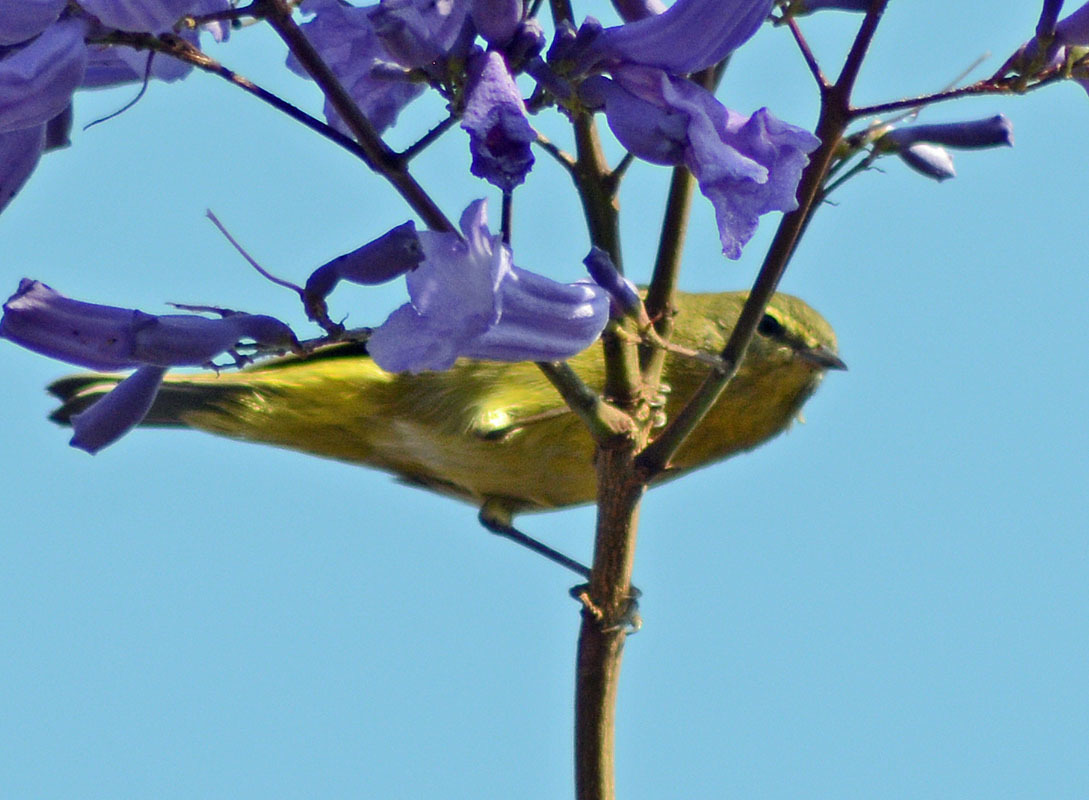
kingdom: Animalia
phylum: Chordata
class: Aves
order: Passeriformes
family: Parulidae
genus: Leiothlypis
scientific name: Leiothlypis celata
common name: Orange-crowned warbler
